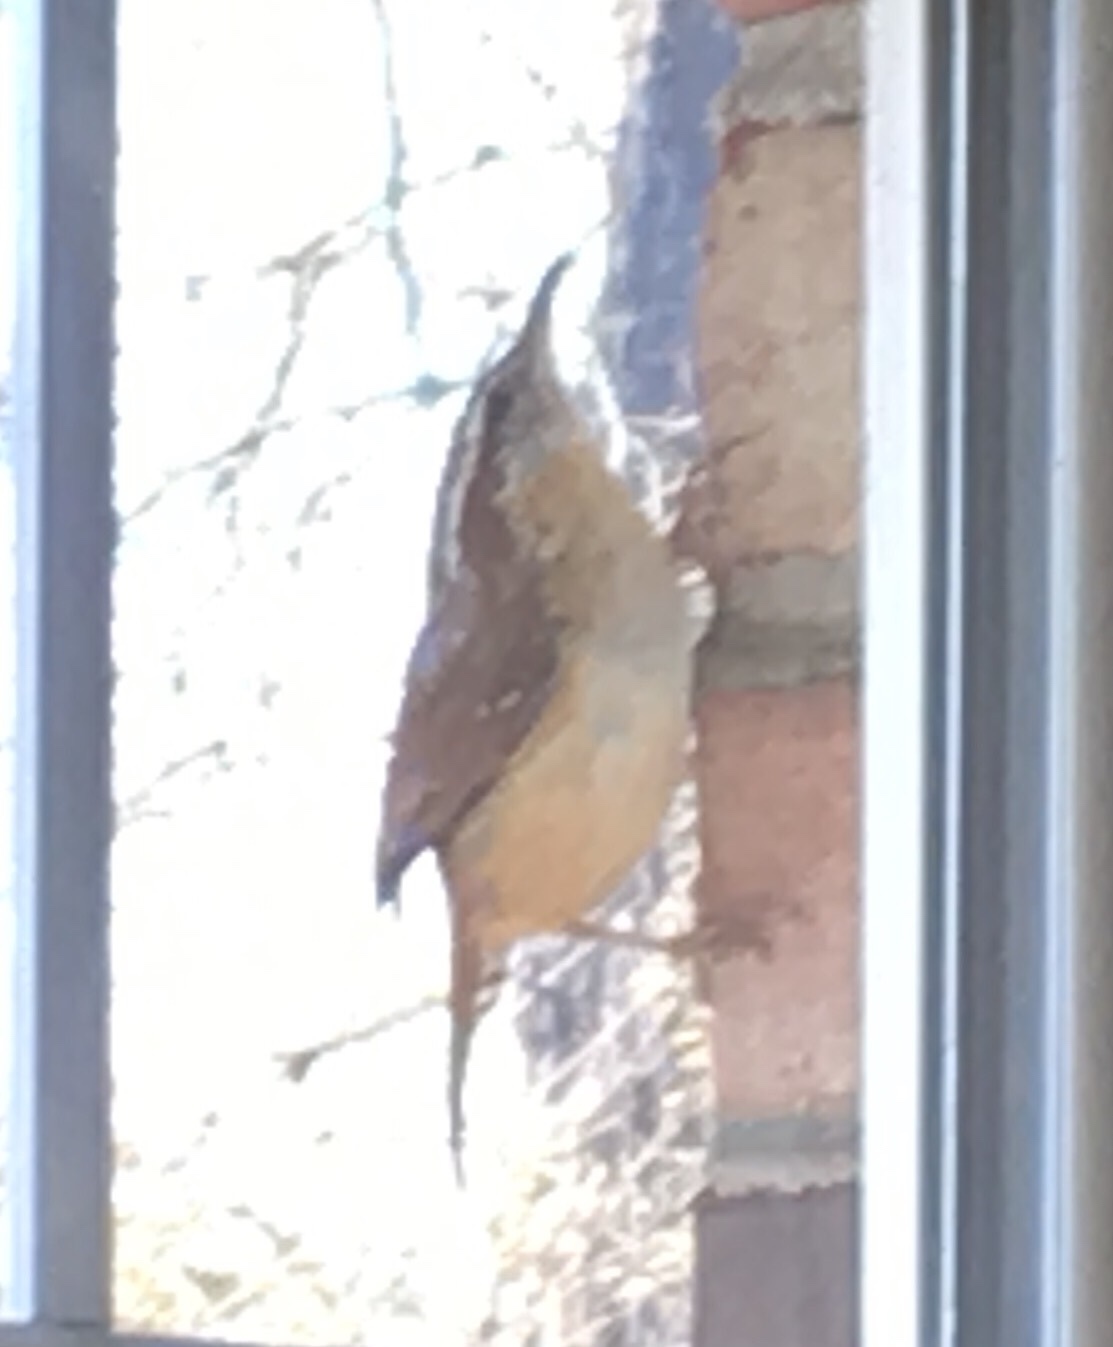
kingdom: Animalia
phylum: Chordata
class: Aves
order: Passeriformes
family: Troglodytidae
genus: Thryothorus
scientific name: Thryothorus ludovicianus
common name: Carolina wren
